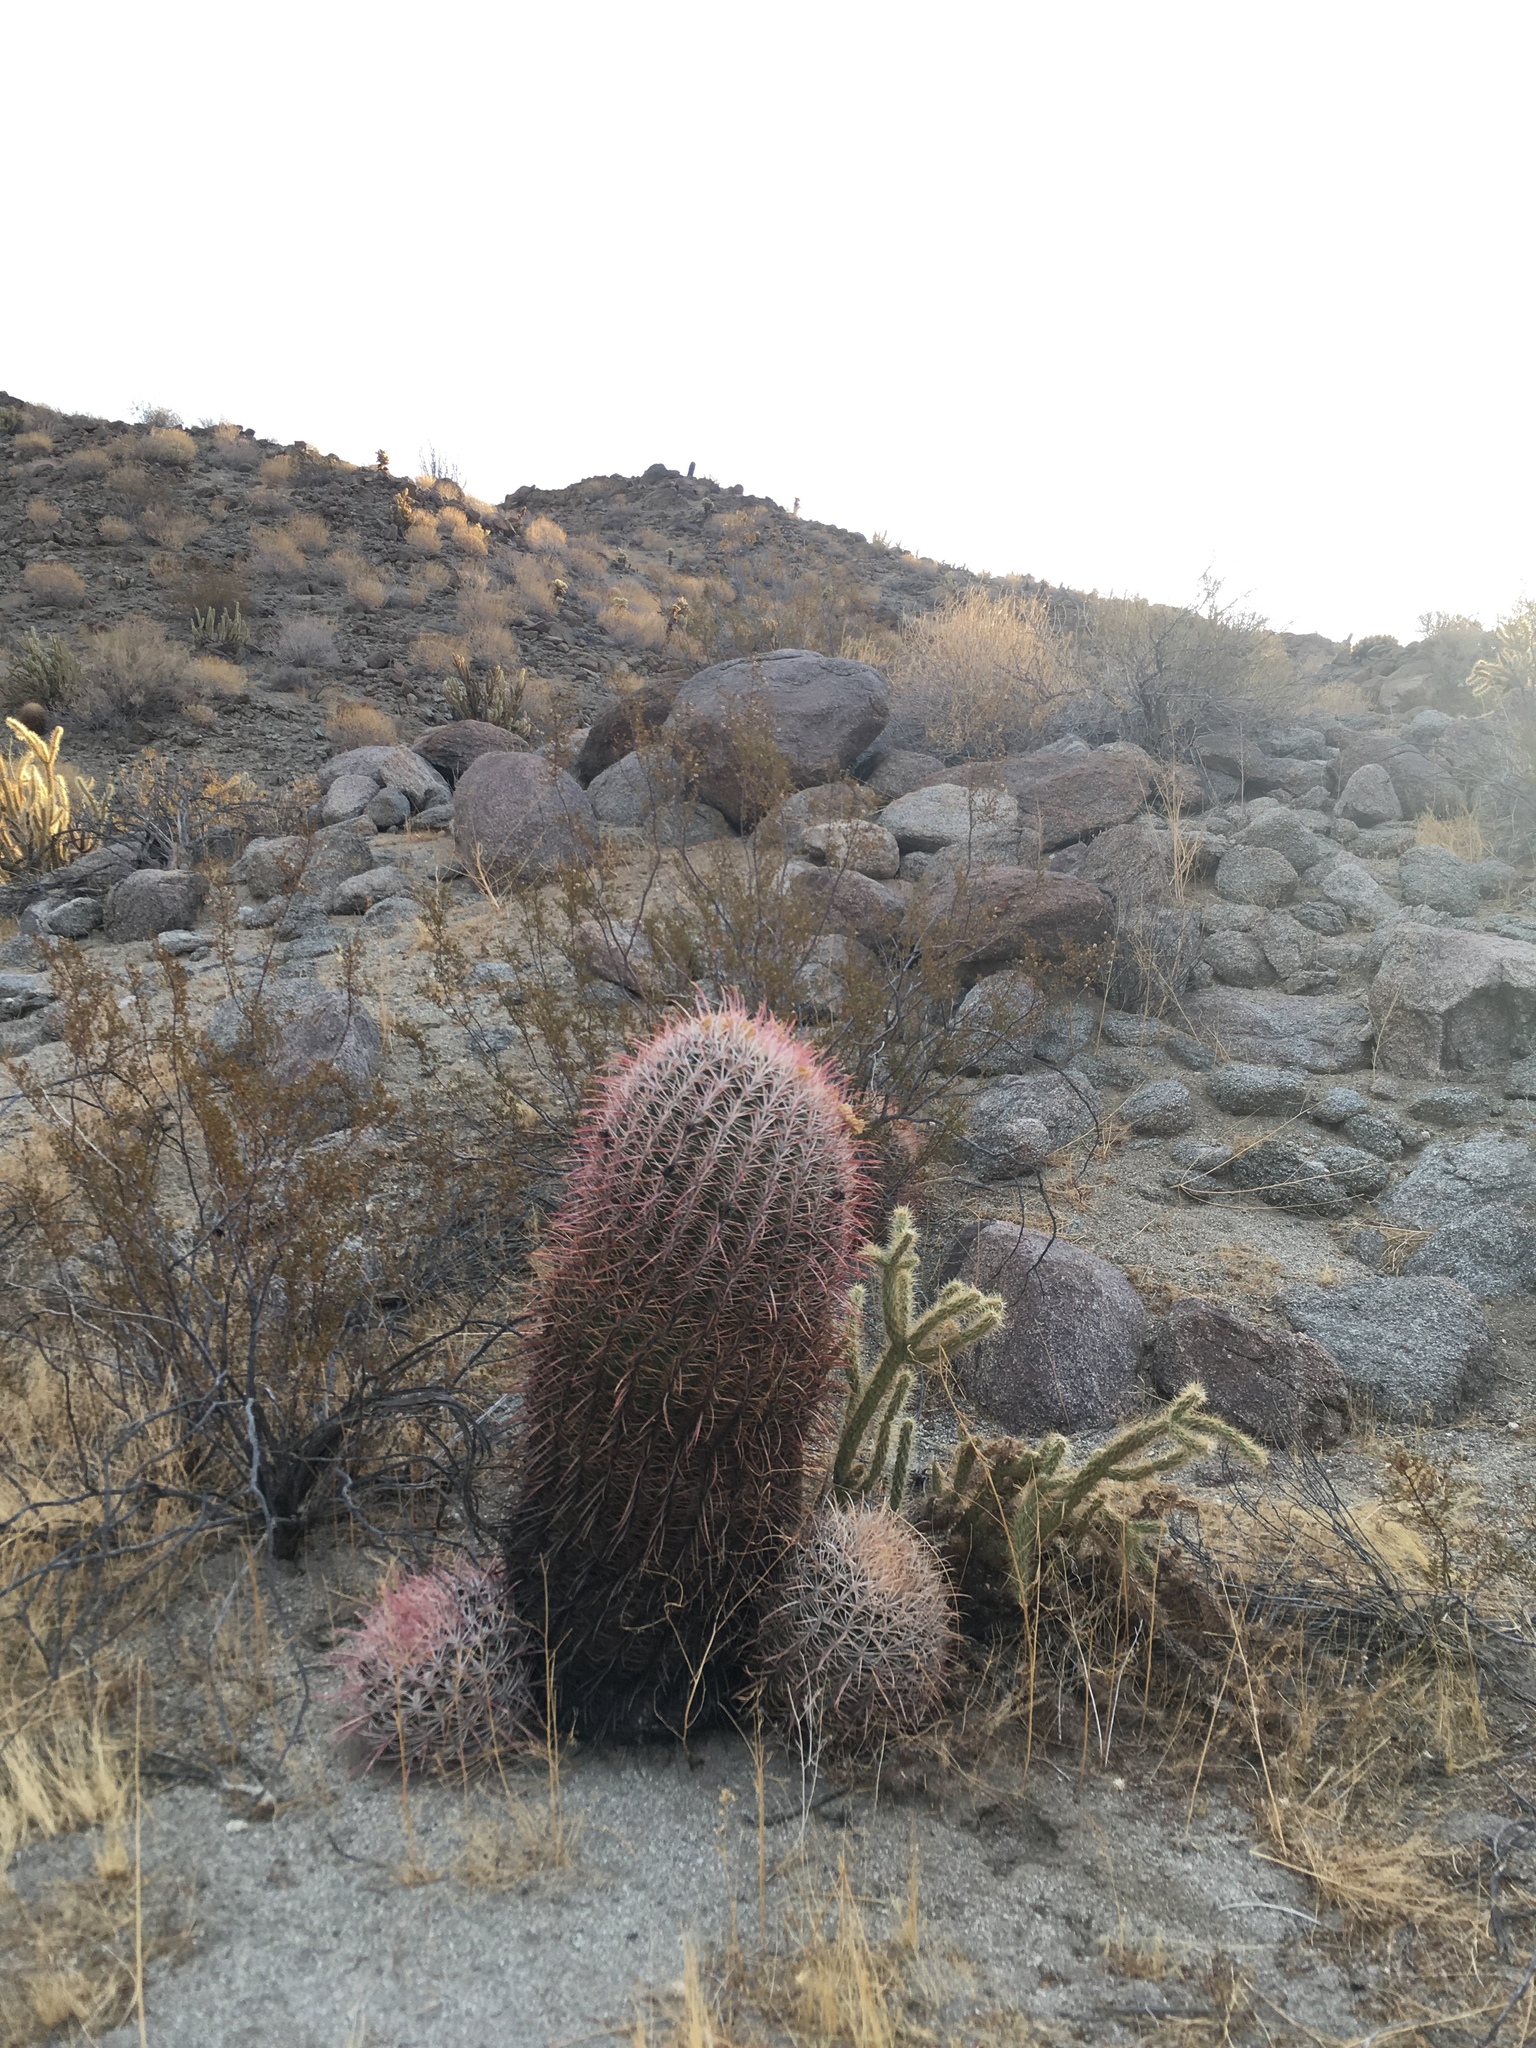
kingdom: Plantae
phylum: Tracheophyta
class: Magnoliopsida
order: Caryophyllales
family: Cactaceae
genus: Ferocactus
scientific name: Ferocactus cylindraceus
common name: California barrel cactus
